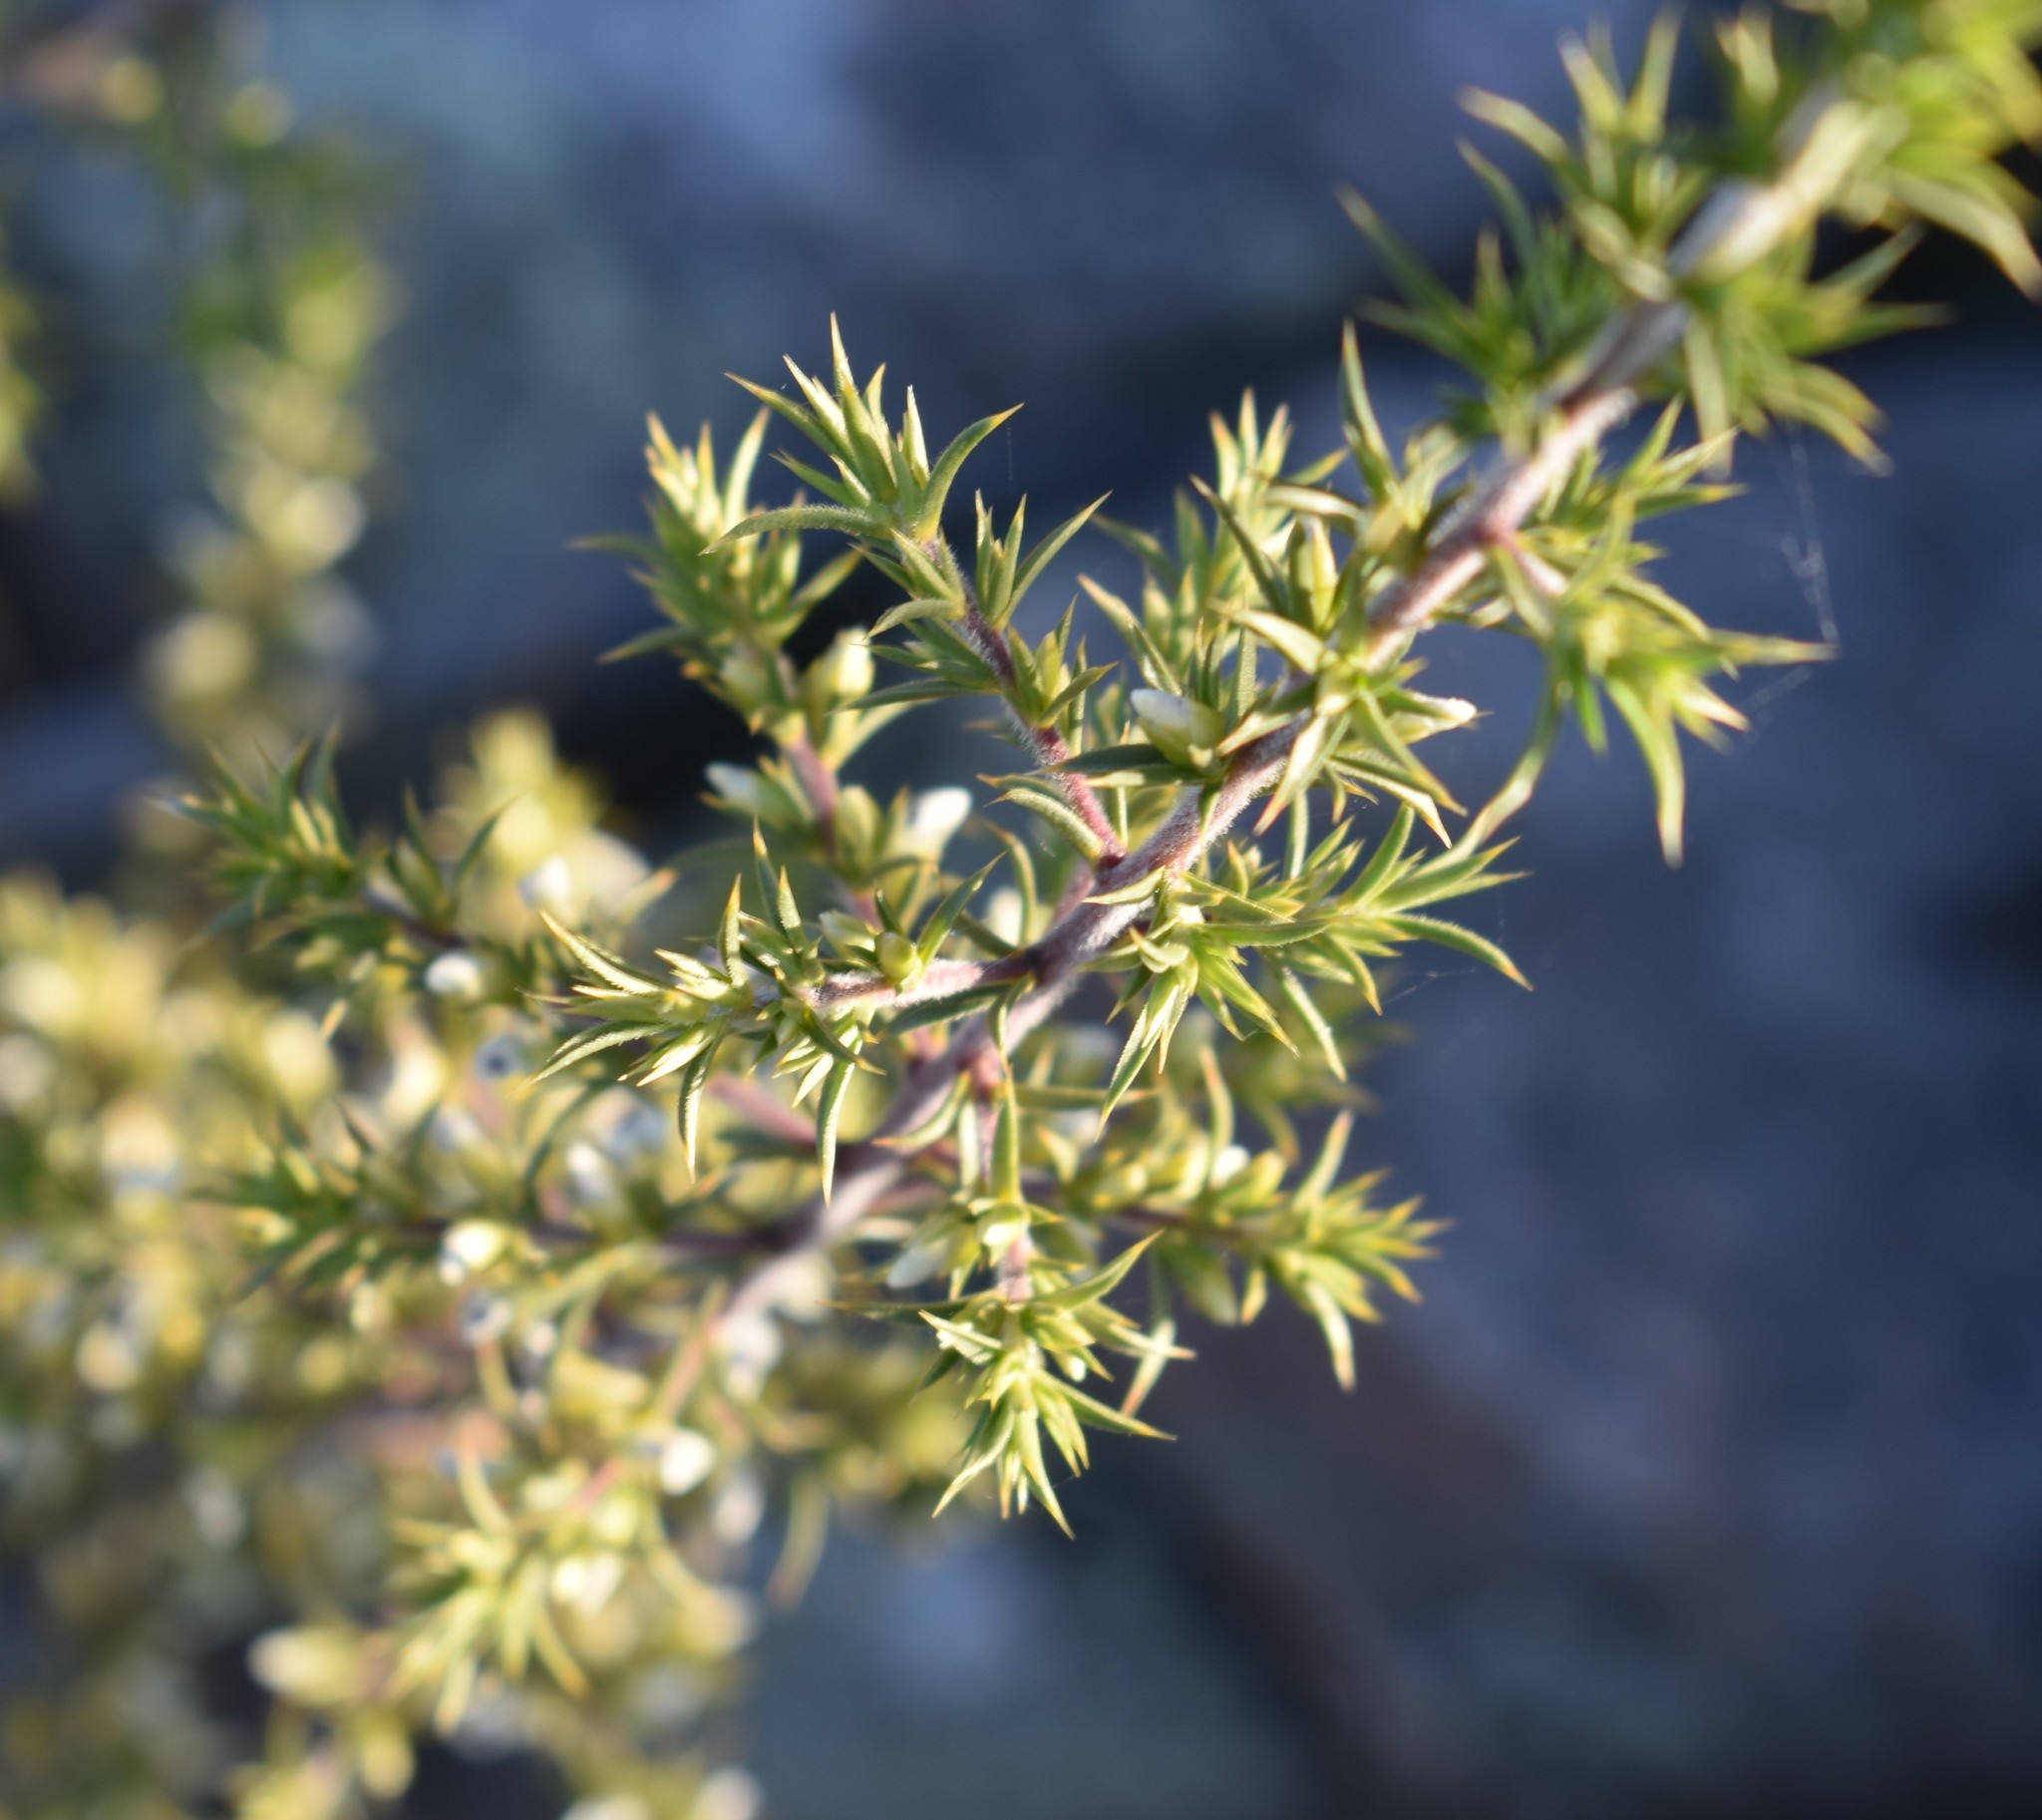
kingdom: Plantae
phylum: Tracheophyta
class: Magnoliopsida
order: Fabales
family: Polygalaceae
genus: Muraltia
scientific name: Muraltia ericifolia
